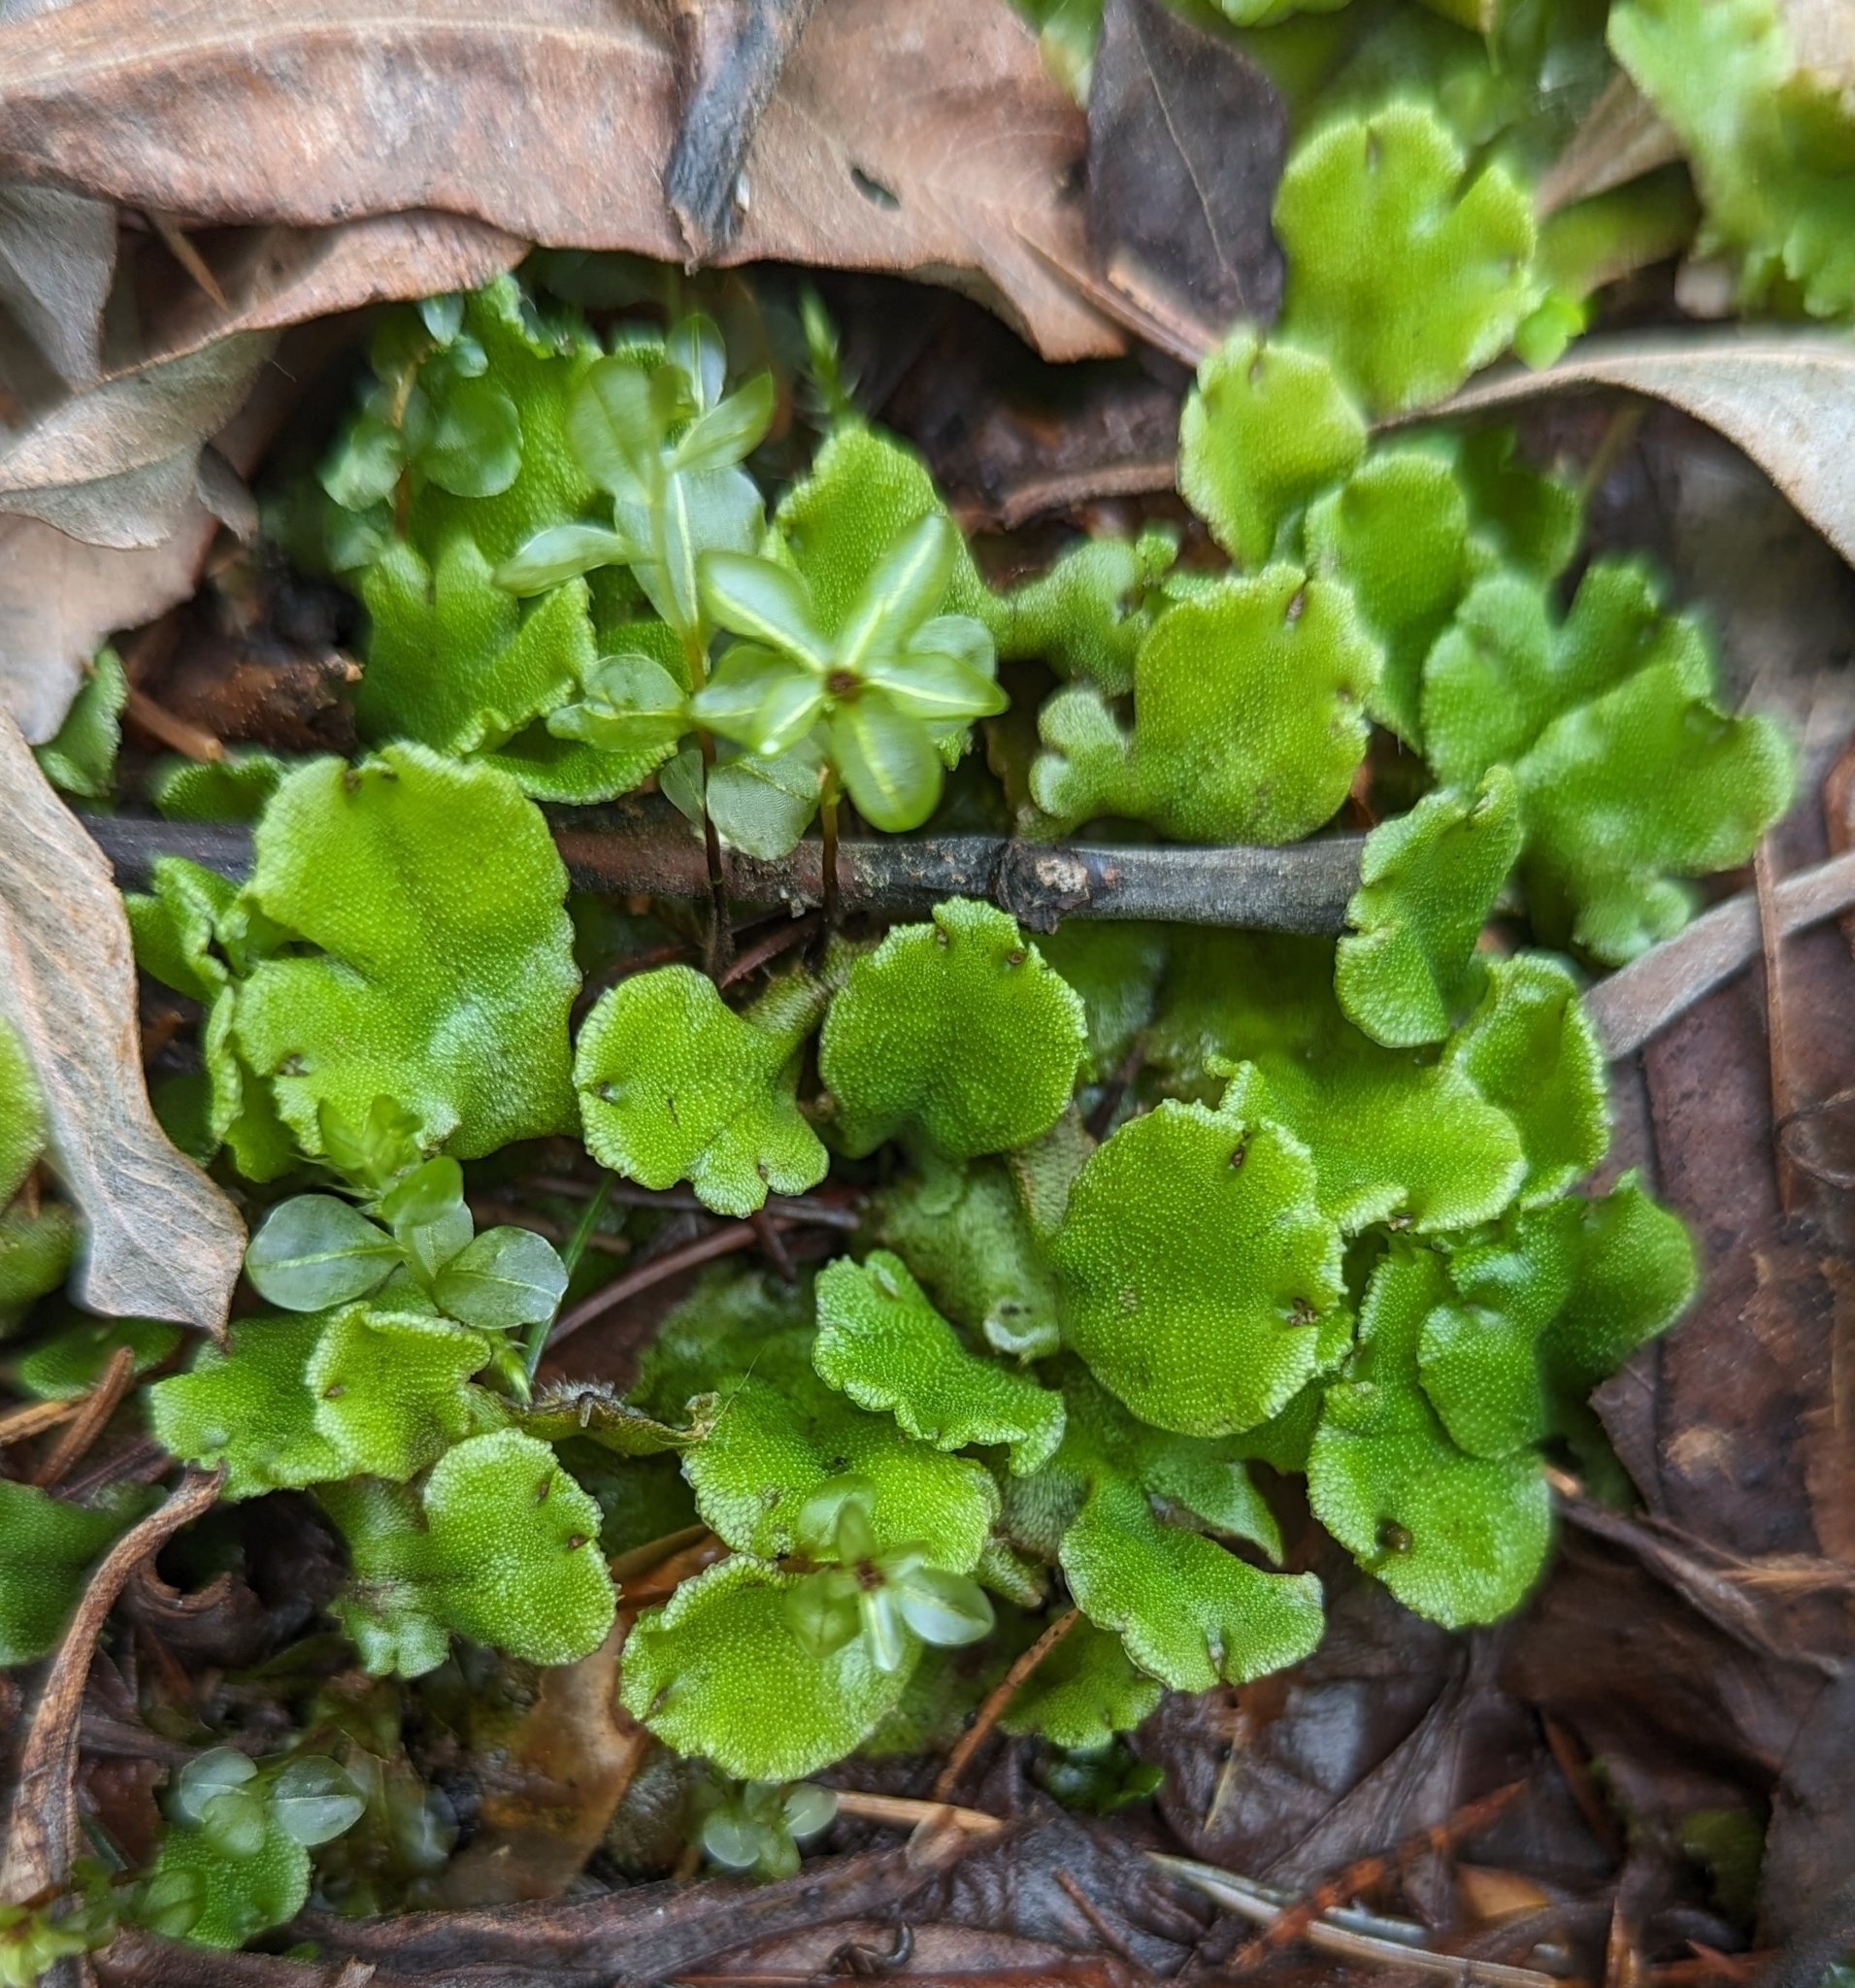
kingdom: Plantae
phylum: Marchantiophyta
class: Marchantiopsida
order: Marchantiales
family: Marchantiaceae
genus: Marchantia
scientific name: Marchantia polymorpha
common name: Common liverwort
